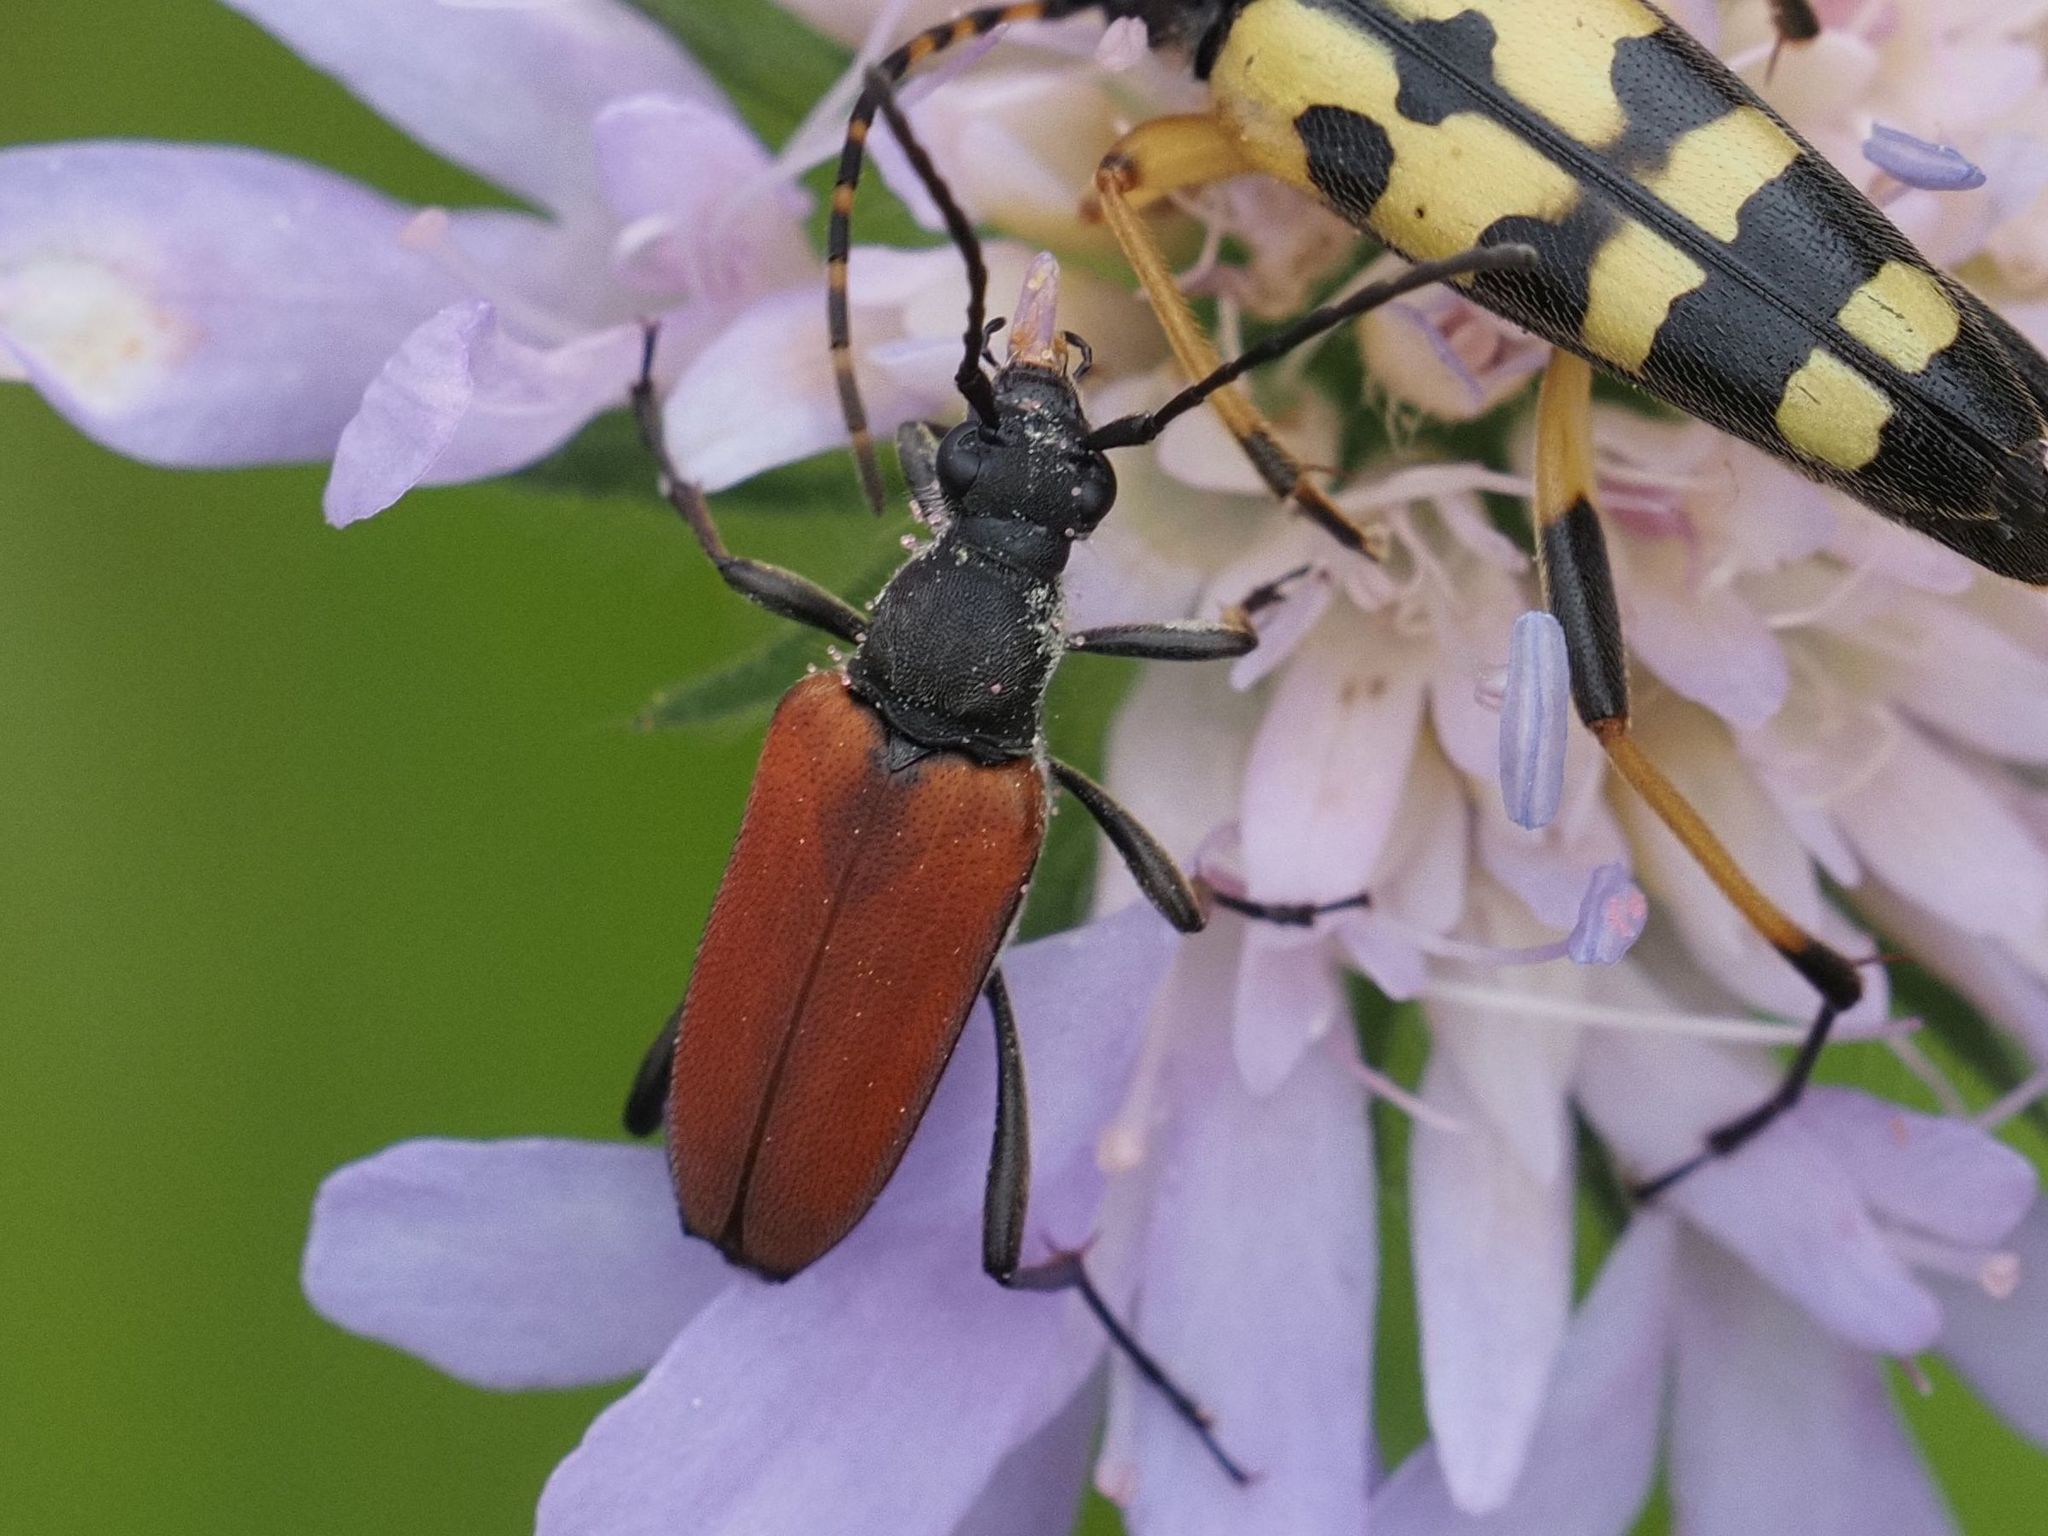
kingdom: Animalia
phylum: Arthropoda
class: Insecta
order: Coleoptera
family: Cerambycidae
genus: Anastrangalia
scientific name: Anastrangalia sanguinolenta
